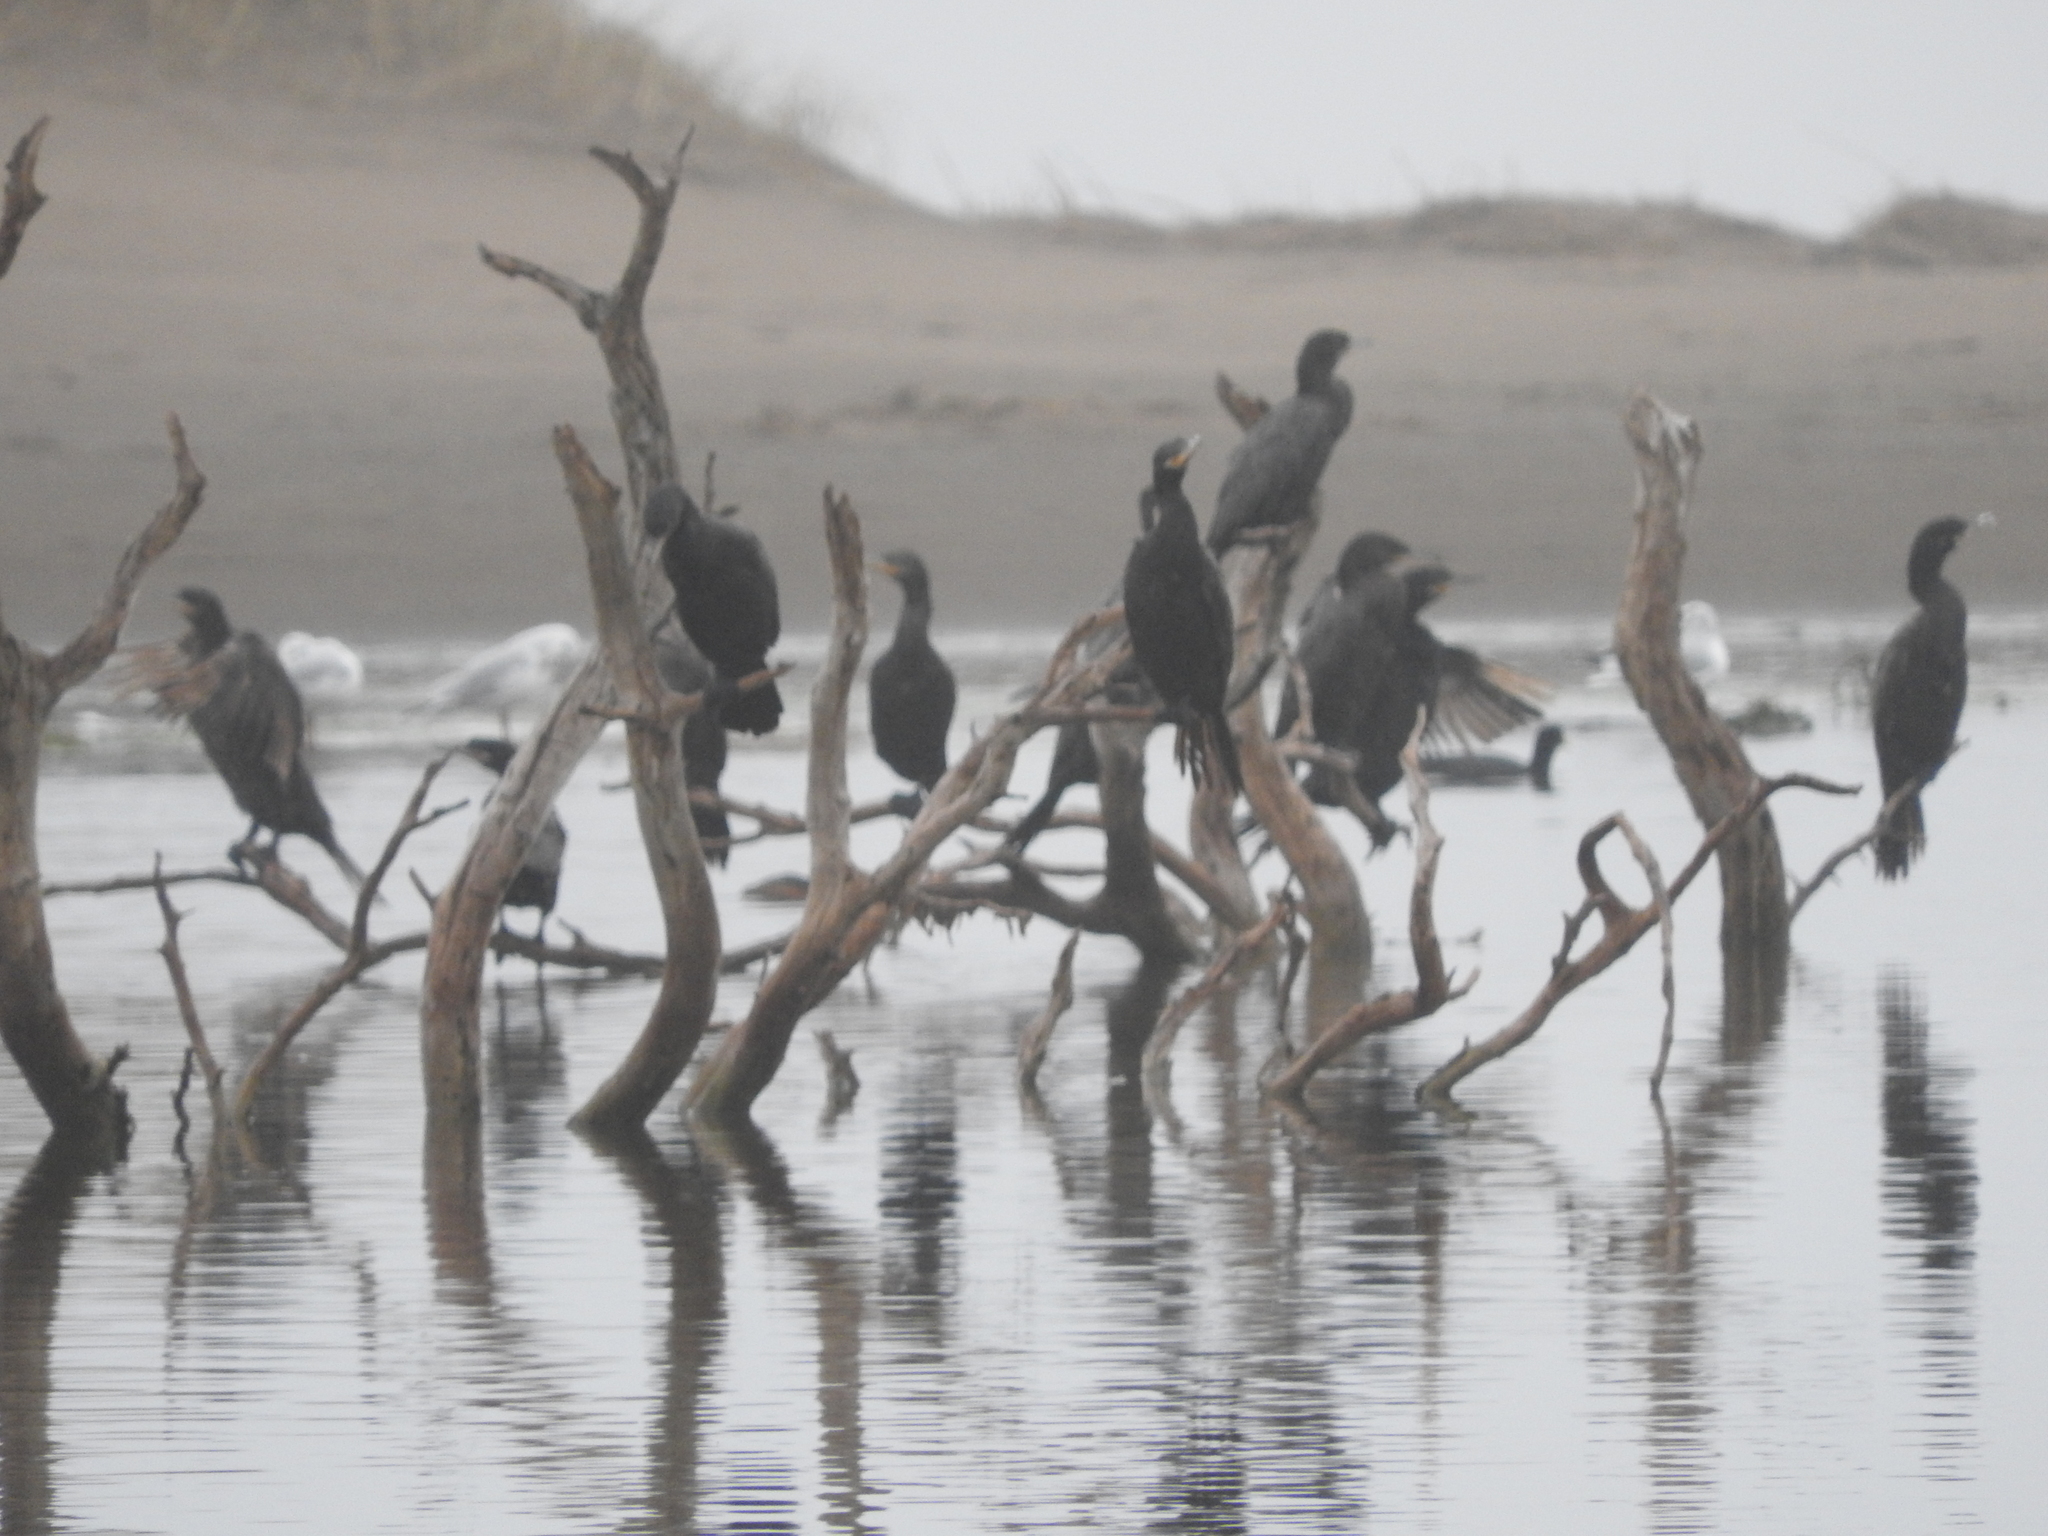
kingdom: Animalia
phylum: Chordata
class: Aves
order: Suliformes
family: Phalacrocoracidae
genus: Phalacrocorax
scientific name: Phalacrocorax brasilianus
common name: Neotropic cormorant
